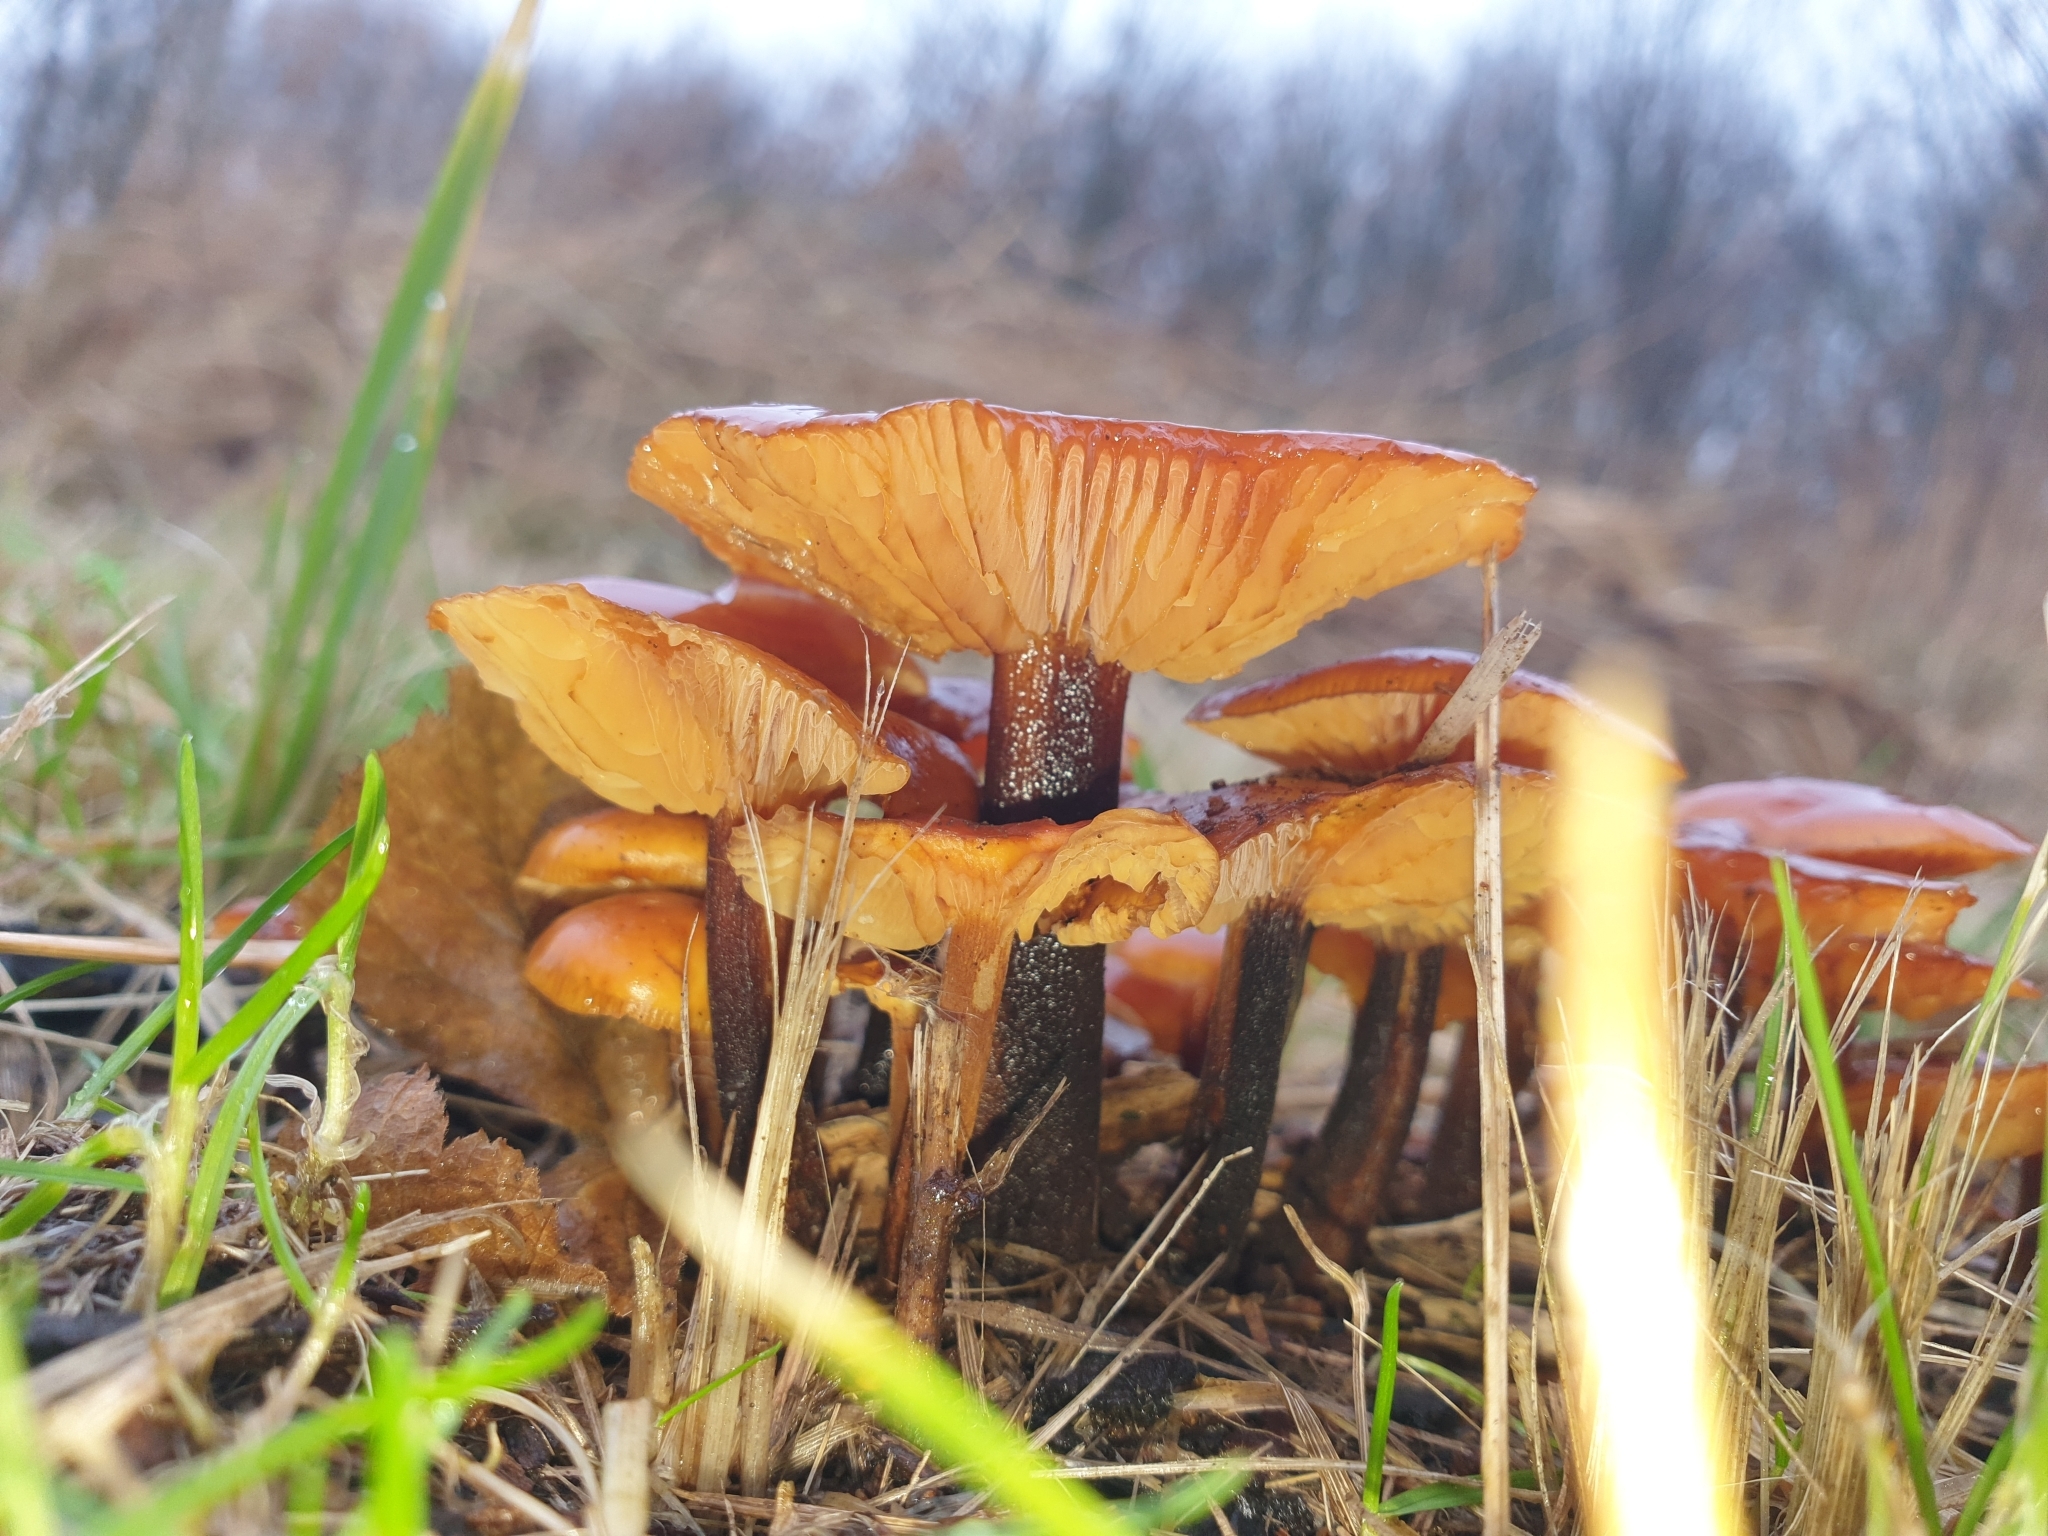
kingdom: Fungi
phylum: Basidiomycota
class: Agaricomycetes
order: Agaricales
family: Physalacriaceae
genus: Flammulina
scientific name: Flammulina
